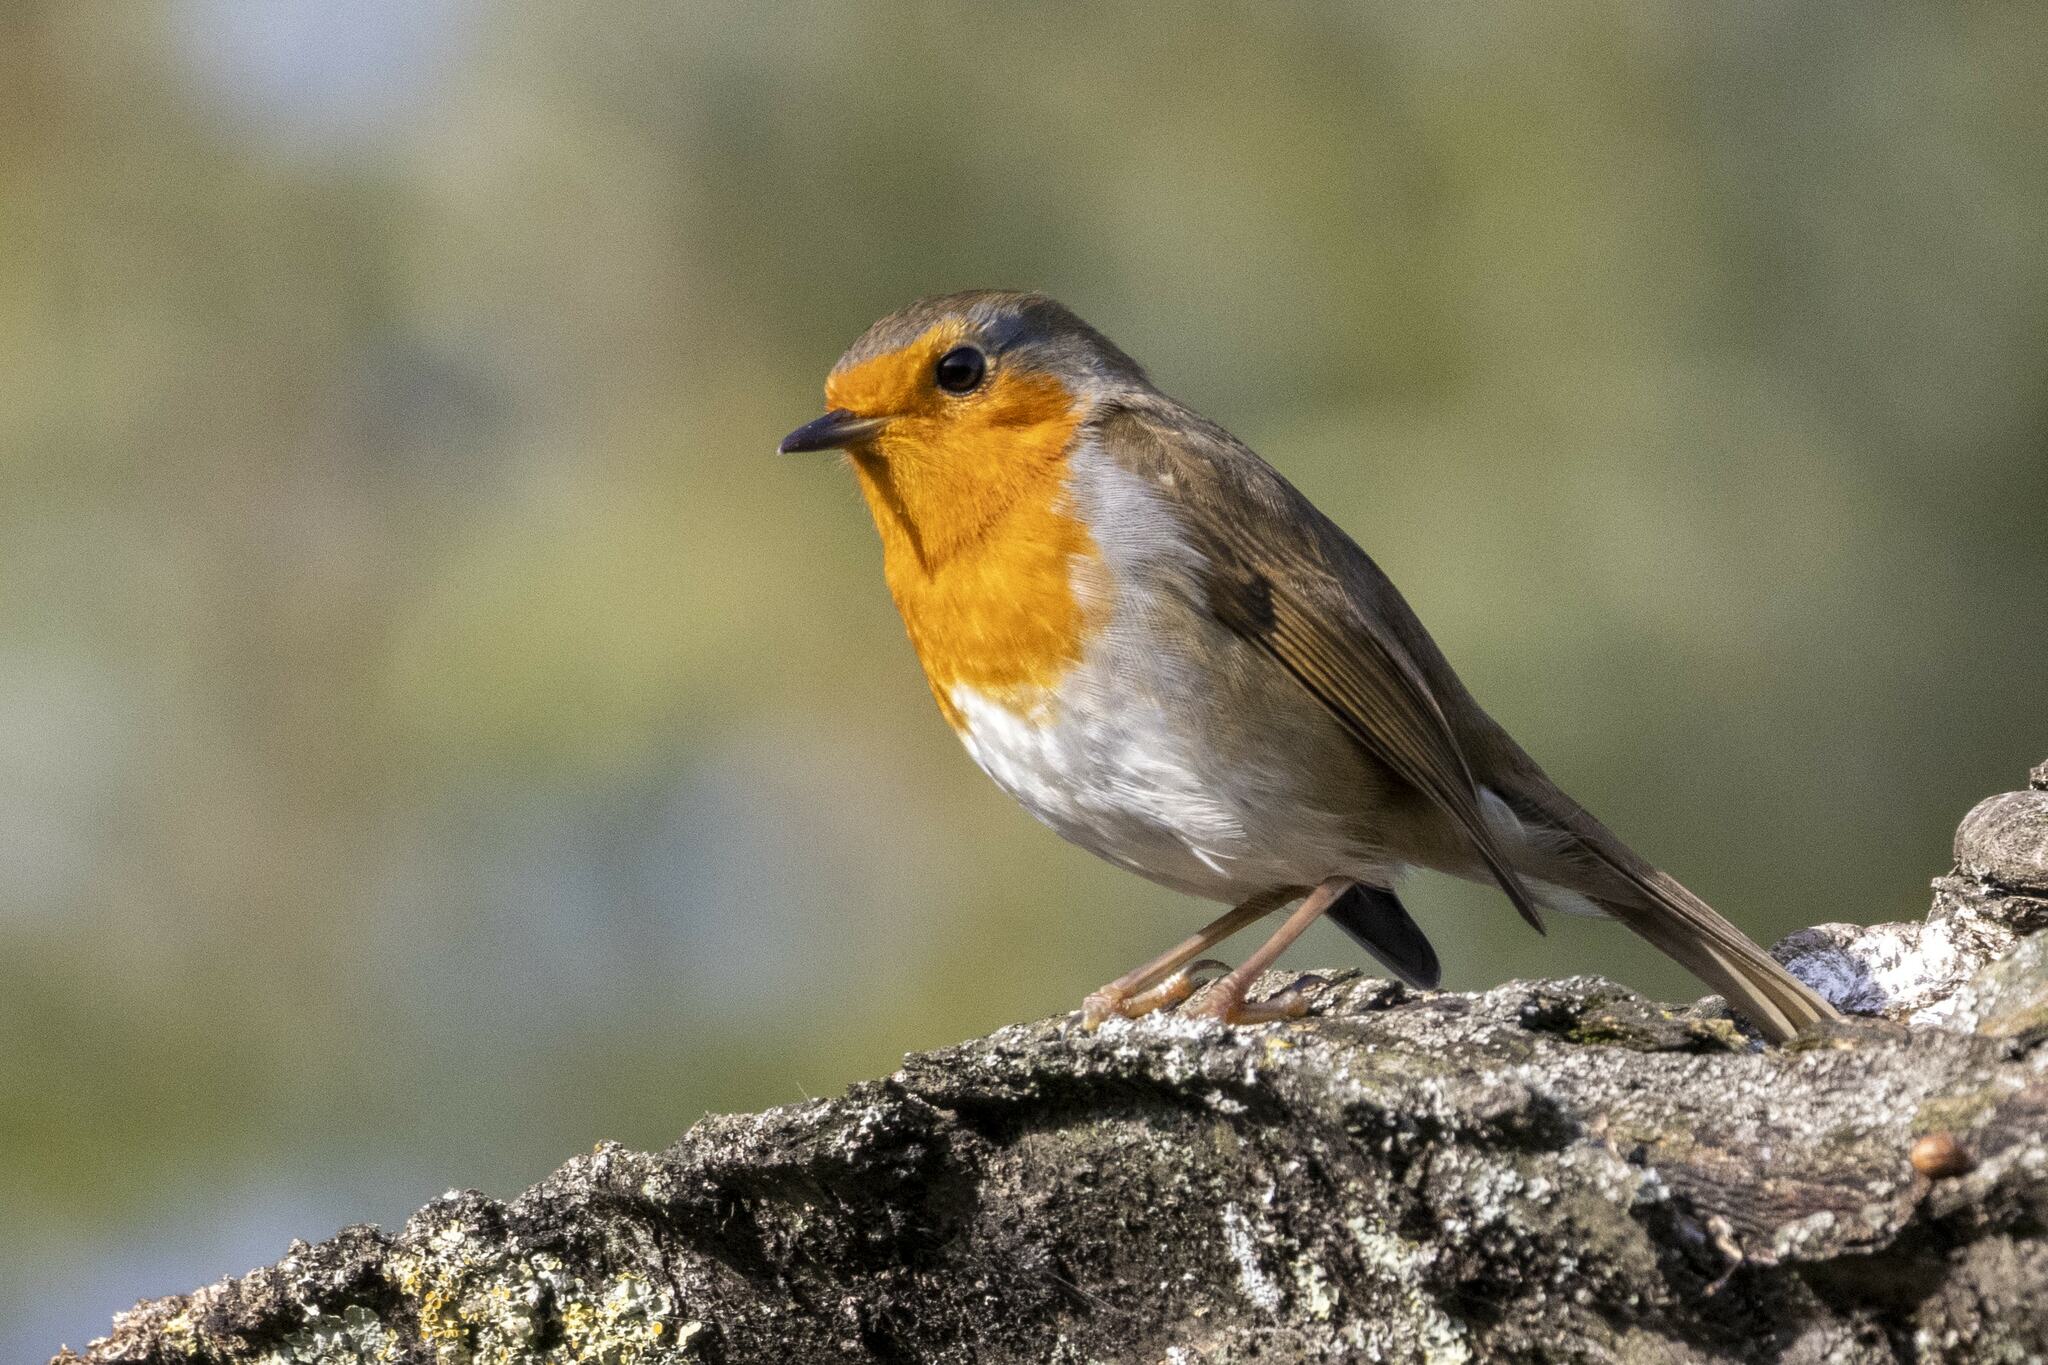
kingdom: Animalia
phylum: Chordata
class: Aves
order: Passeriformes
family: Muscicapidae
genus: Erithacus
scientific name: Erithacus rubecula
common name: European robin
